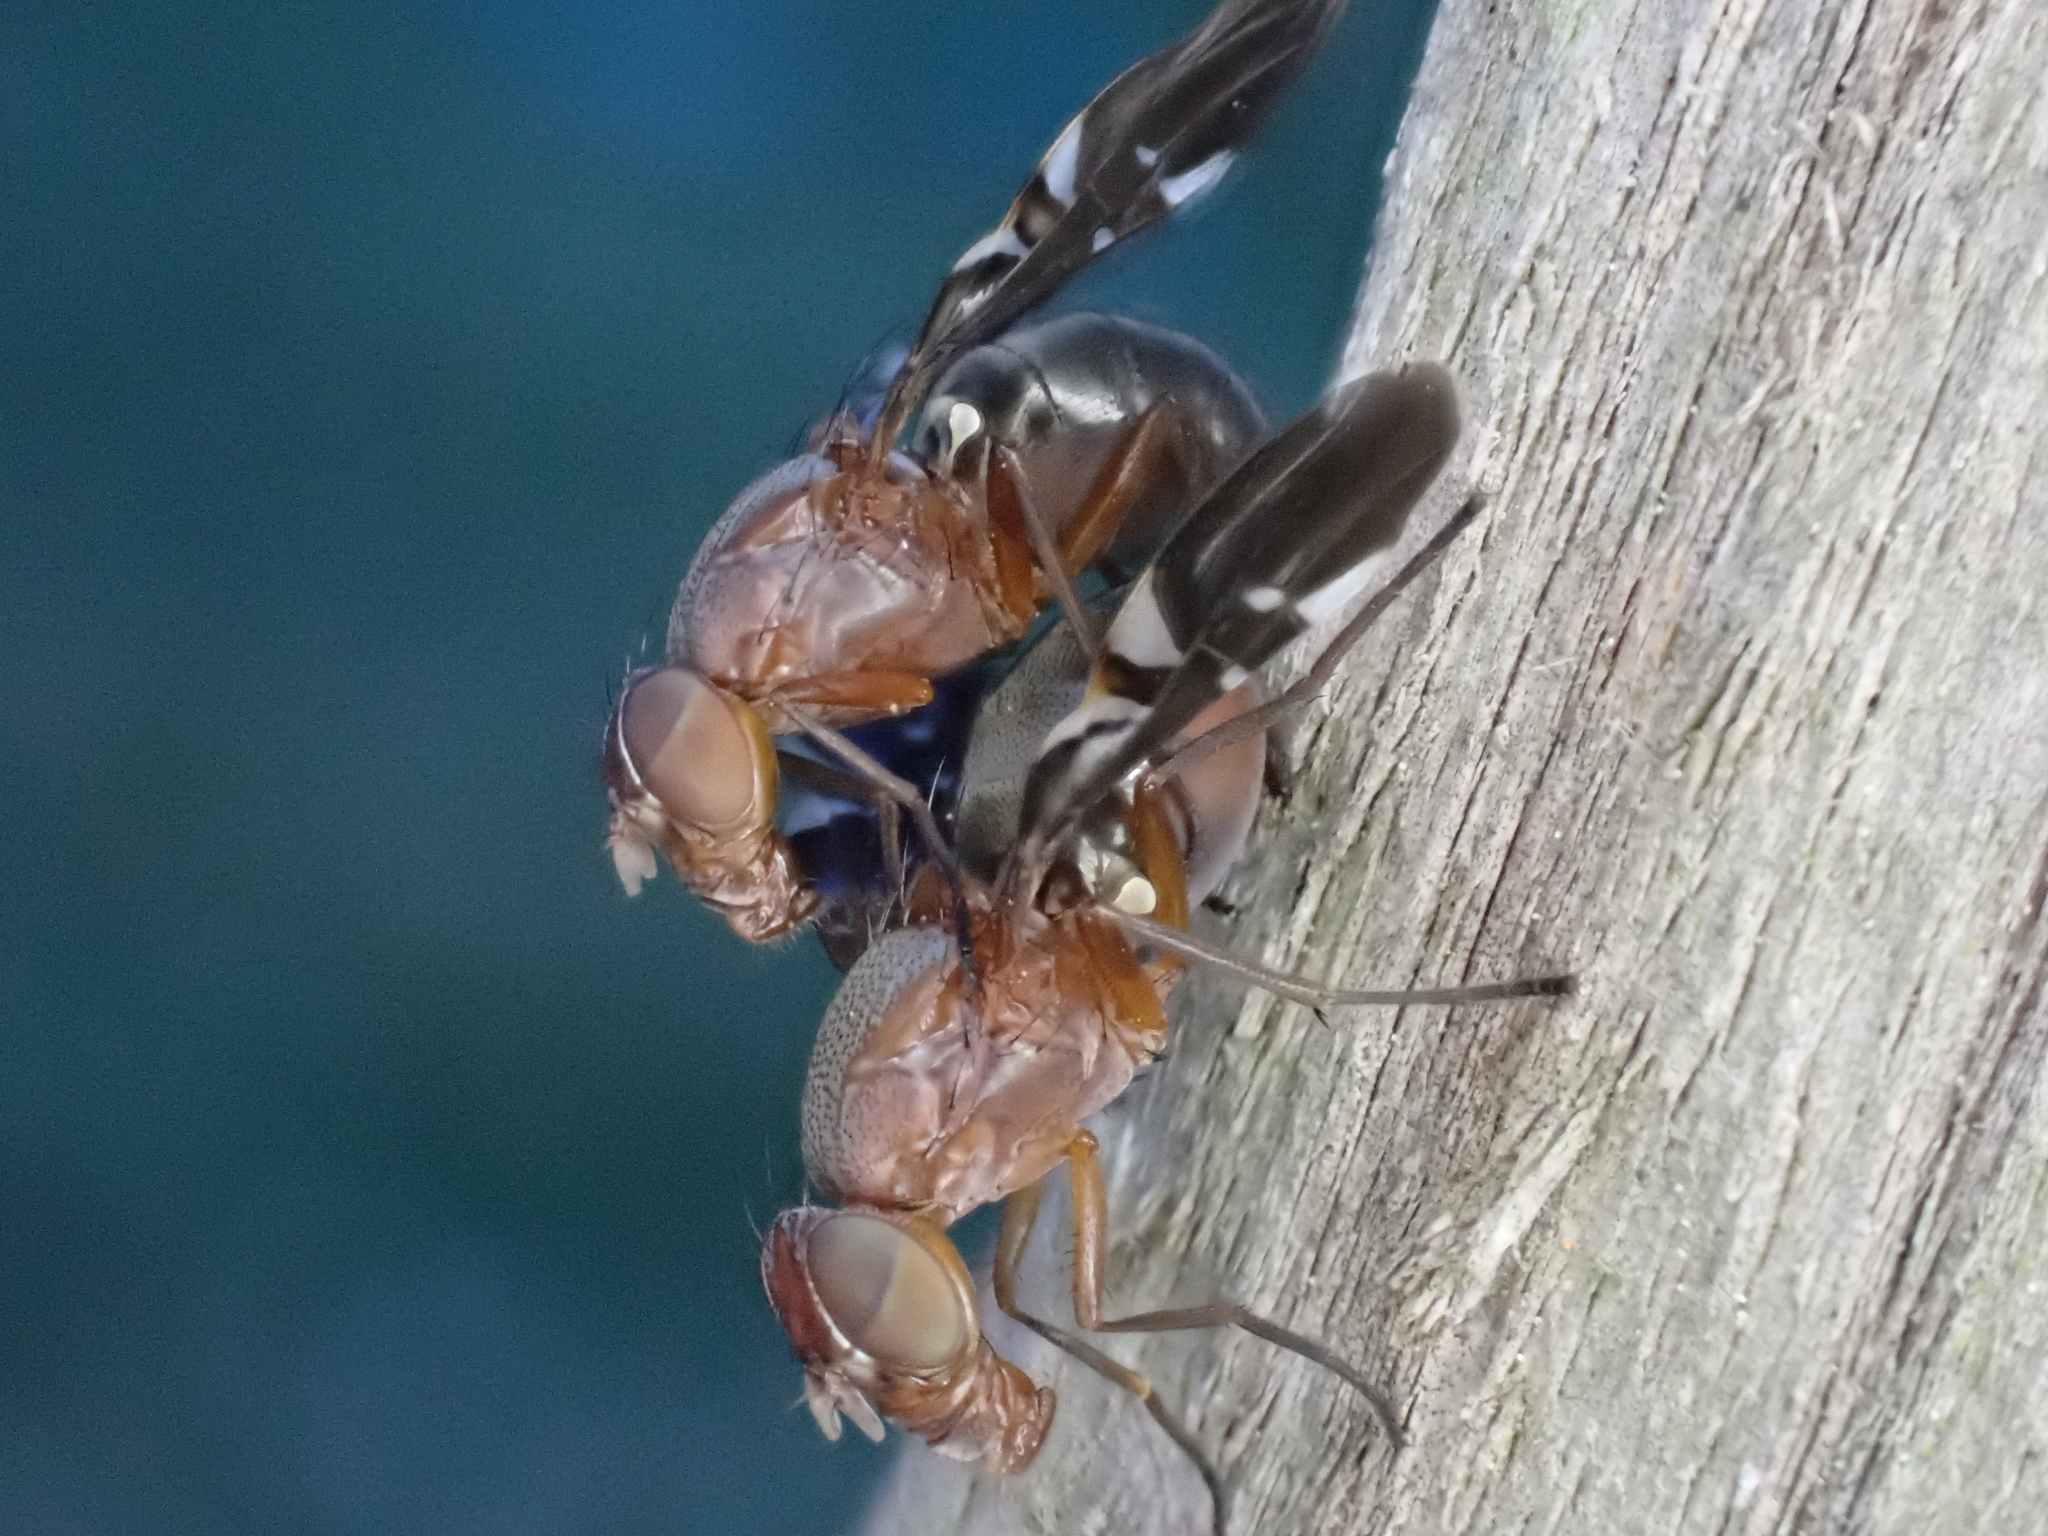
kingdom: Animalia
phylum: Arthropoda
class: Insecta
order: Diptera
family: Ulidiidae
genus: Delphinia
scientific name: Delphinia picta
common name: Common picture-winged fly
